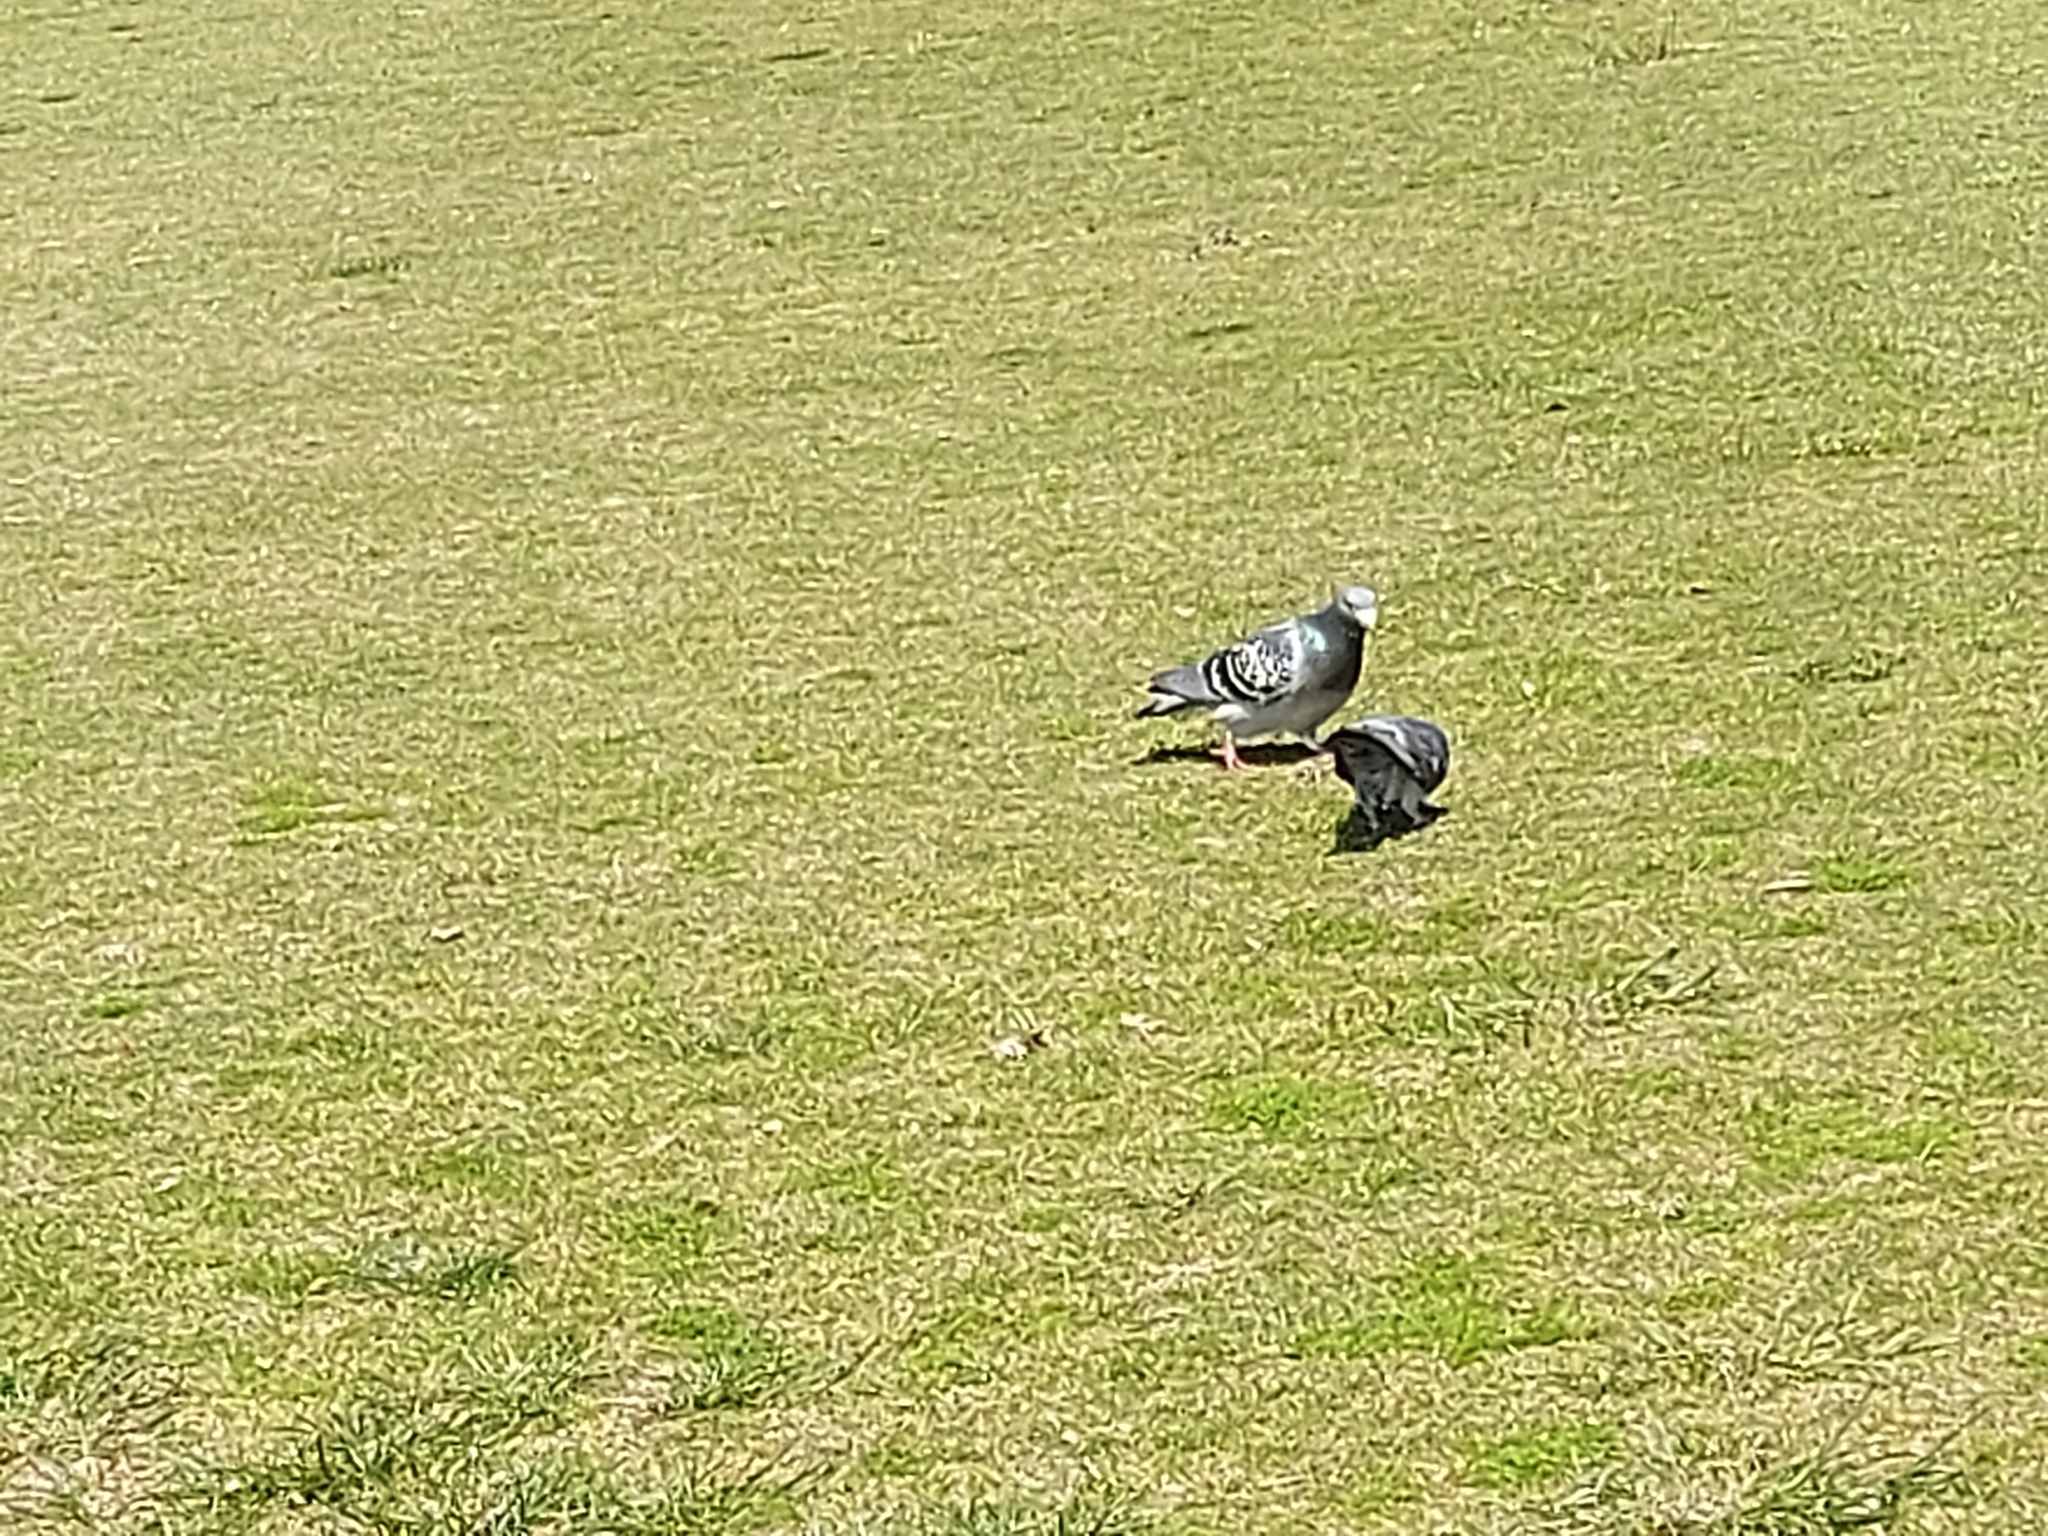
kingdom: Animalia
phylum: Chordata
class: Aves
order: Columbiformes
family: Columbidae
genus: Columba
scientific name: Columba livia
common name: Rock pigeon
